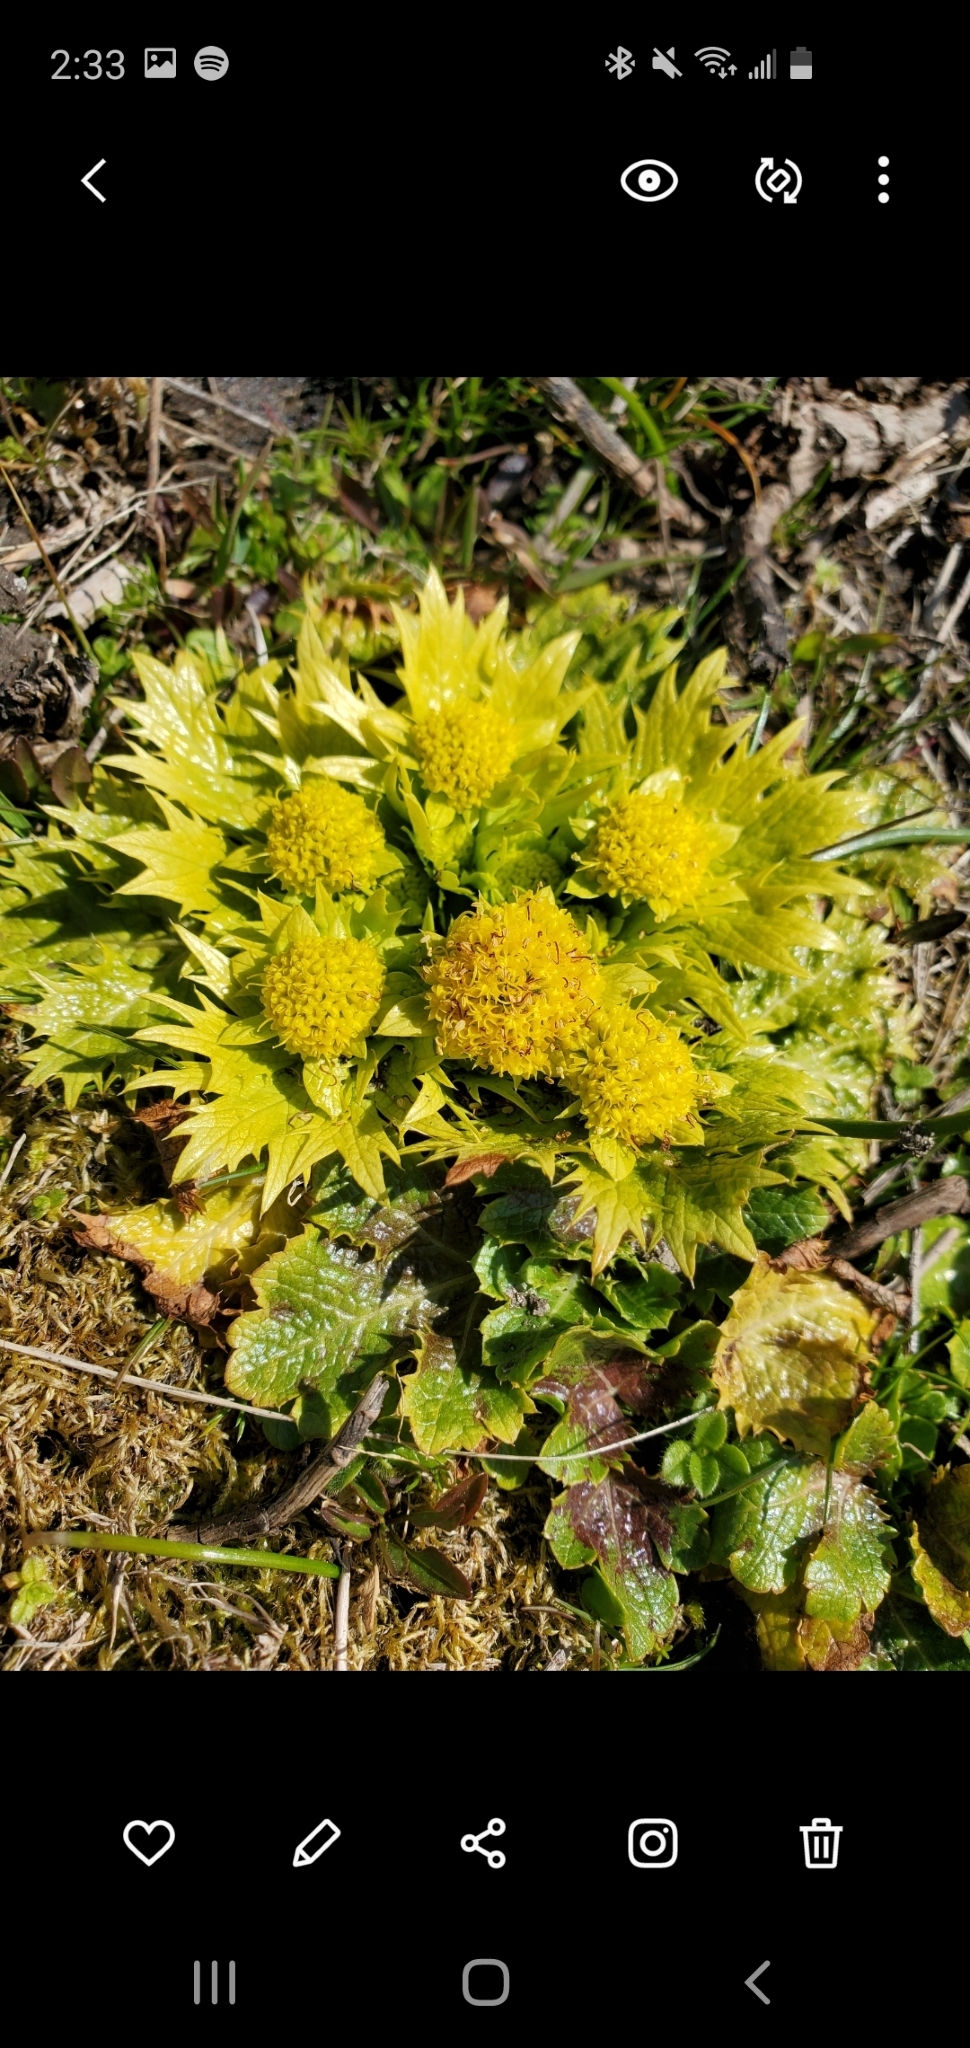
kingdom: Plantae
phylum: Tracheophyta
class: Magnoliopsida
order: Apiales
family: Apiaceae
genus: Sanicula
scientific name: Sanicula arctopoides
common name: Footsteps-of-spring
